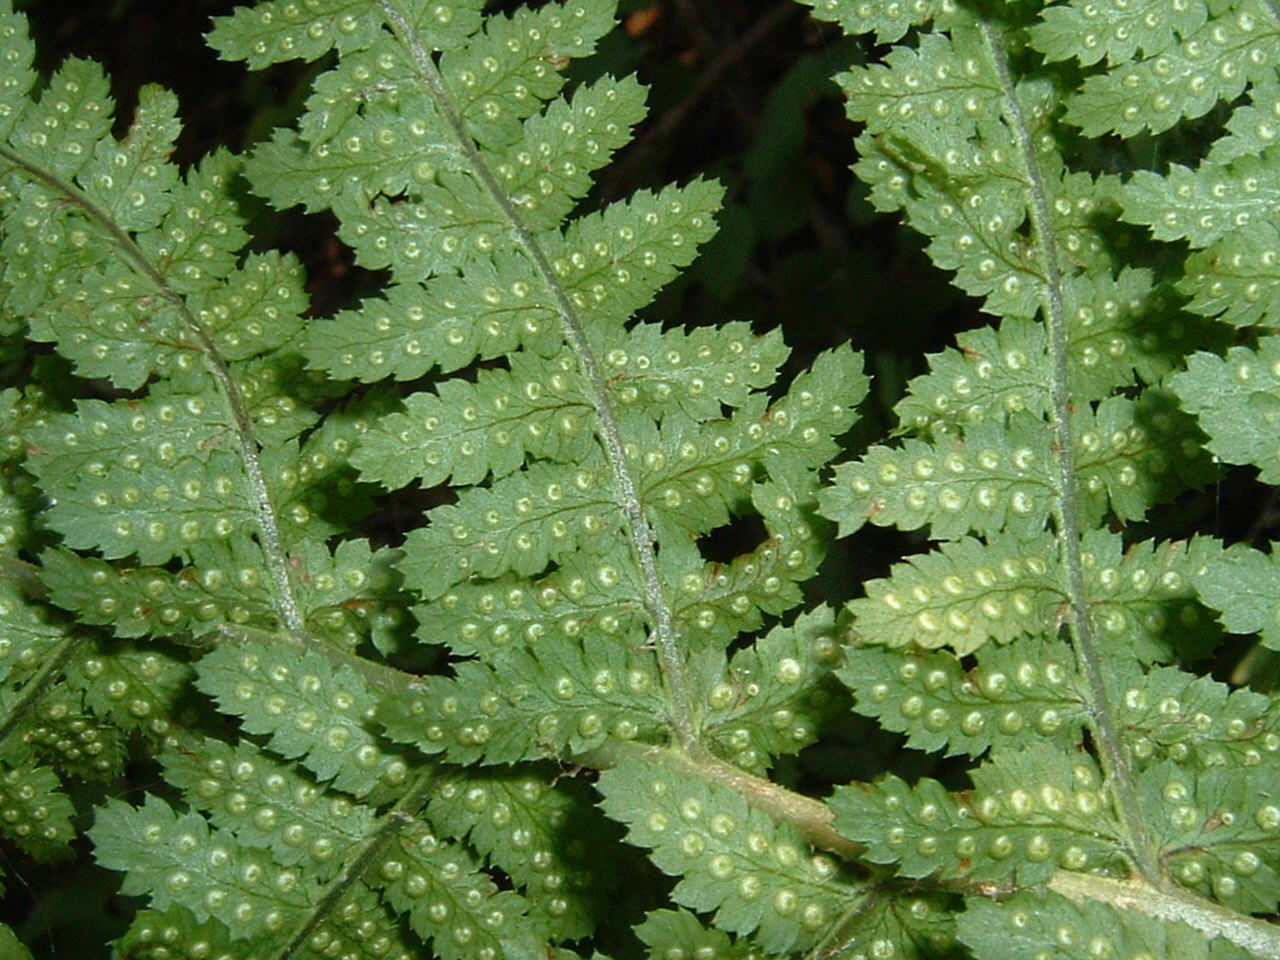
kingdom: Plantae
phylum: Tracheophyta
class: Polypodiopsida
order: Polypodiales
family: Dryopteridaceae
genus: Dryopteris
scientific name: Dryopteris arguta
